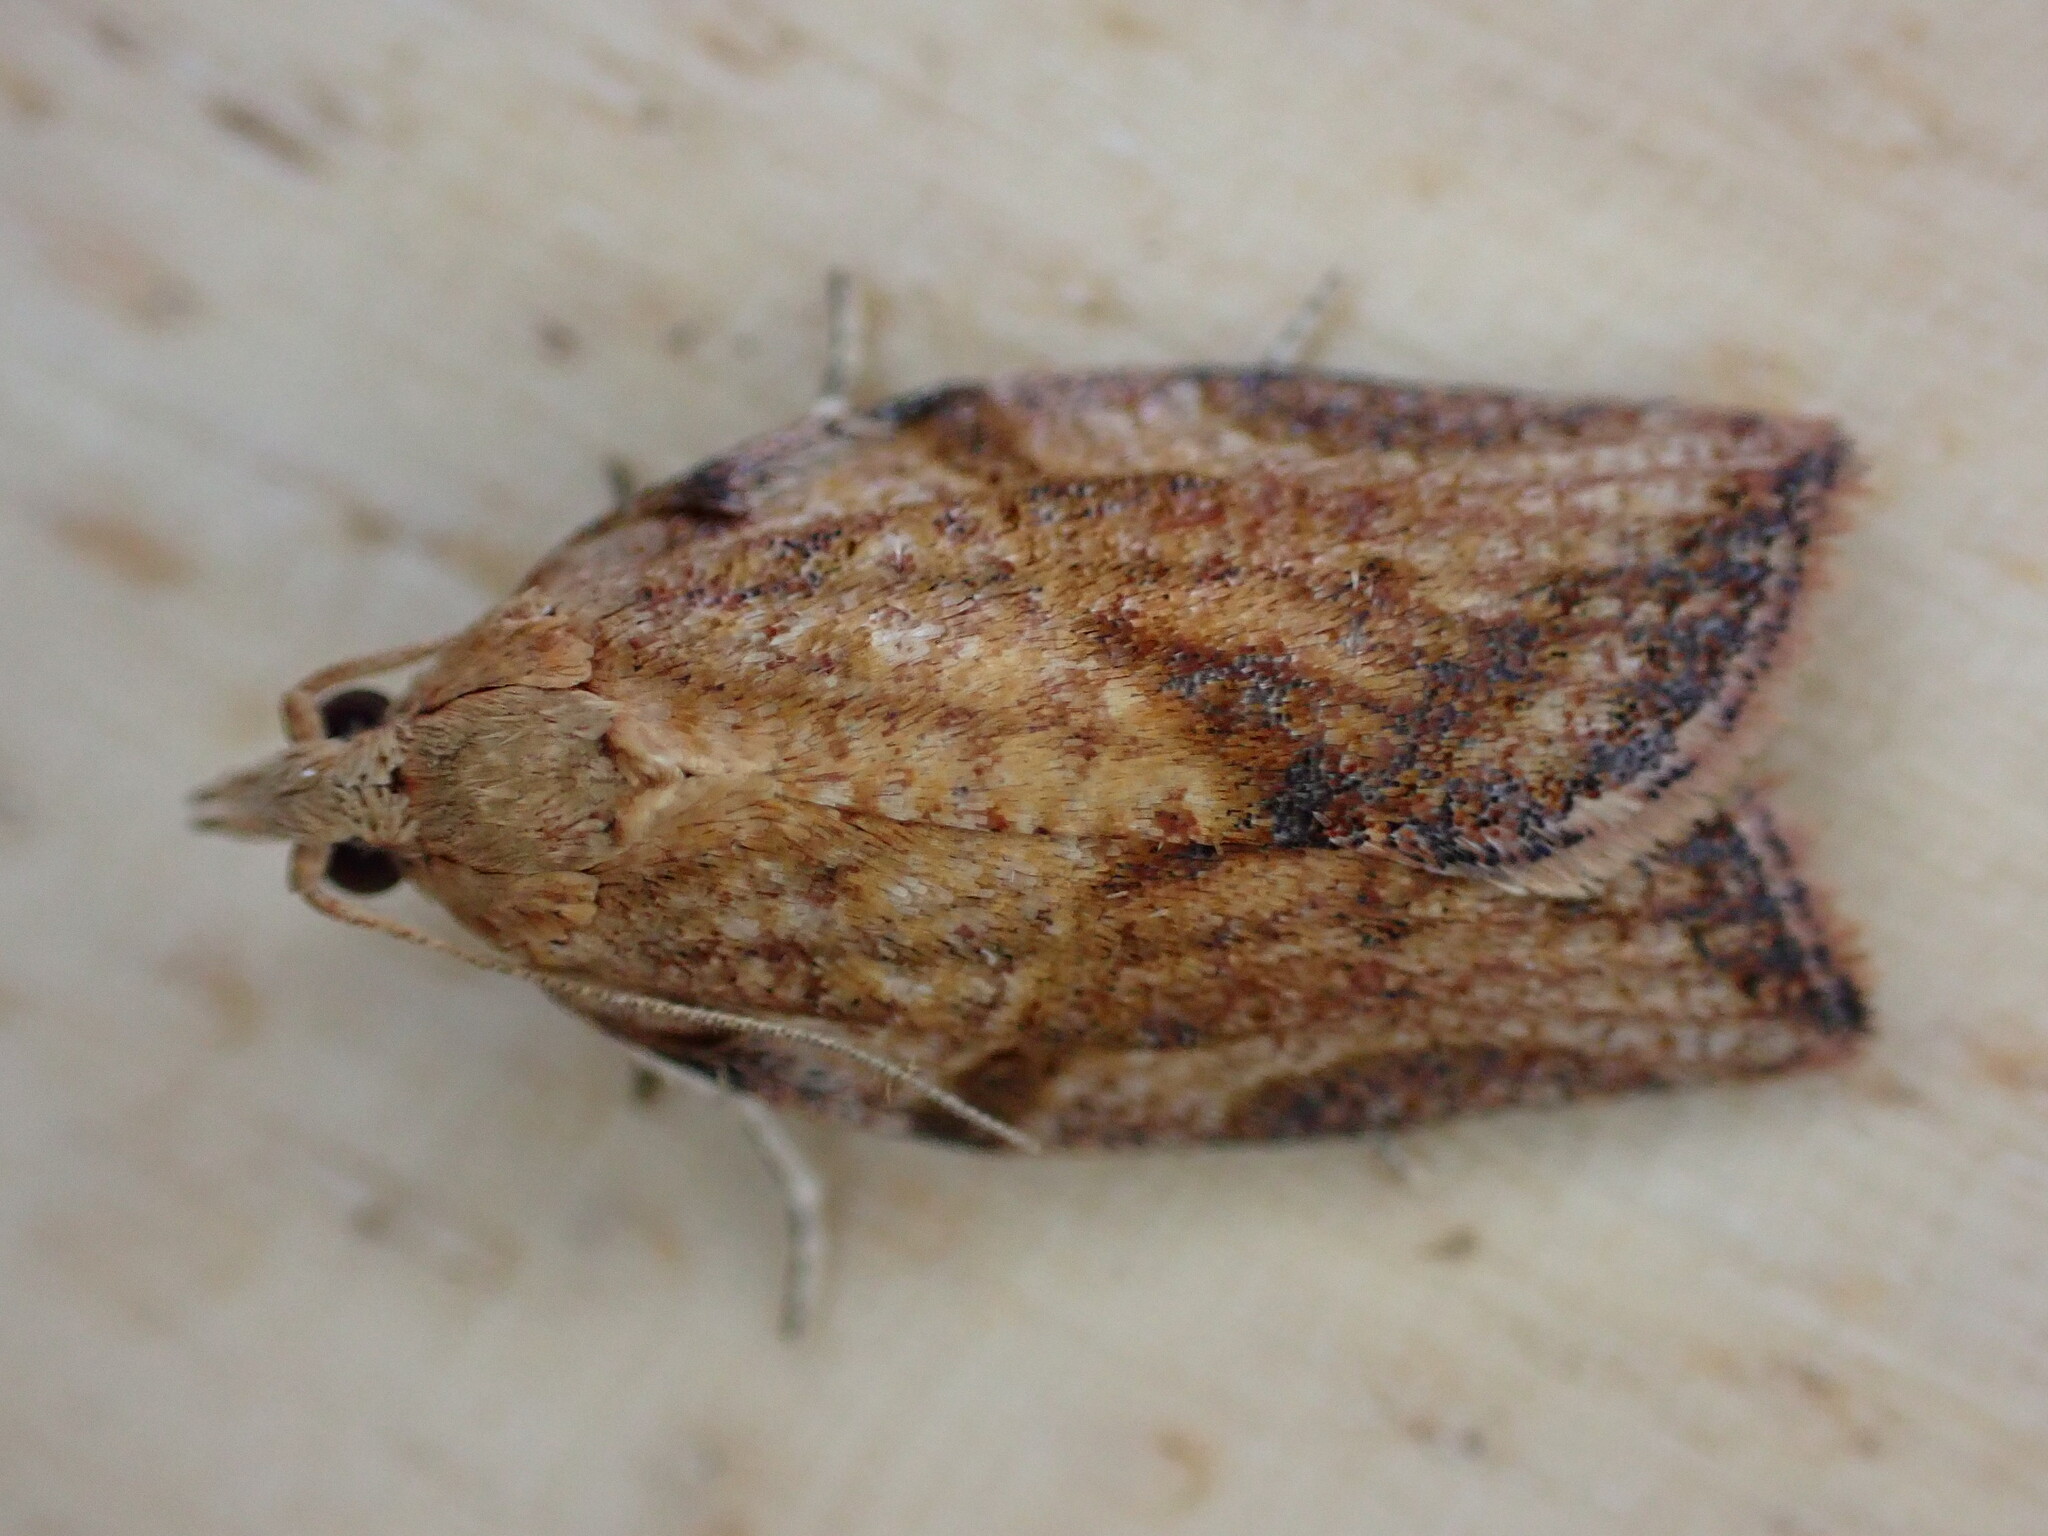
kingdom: Animalia
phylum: Arthropoda
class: Insecta
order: Lepidoptera
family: Tortricidae
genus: Epiphyas
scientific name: Epiphyas postvittana
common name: Light brown apple moth
